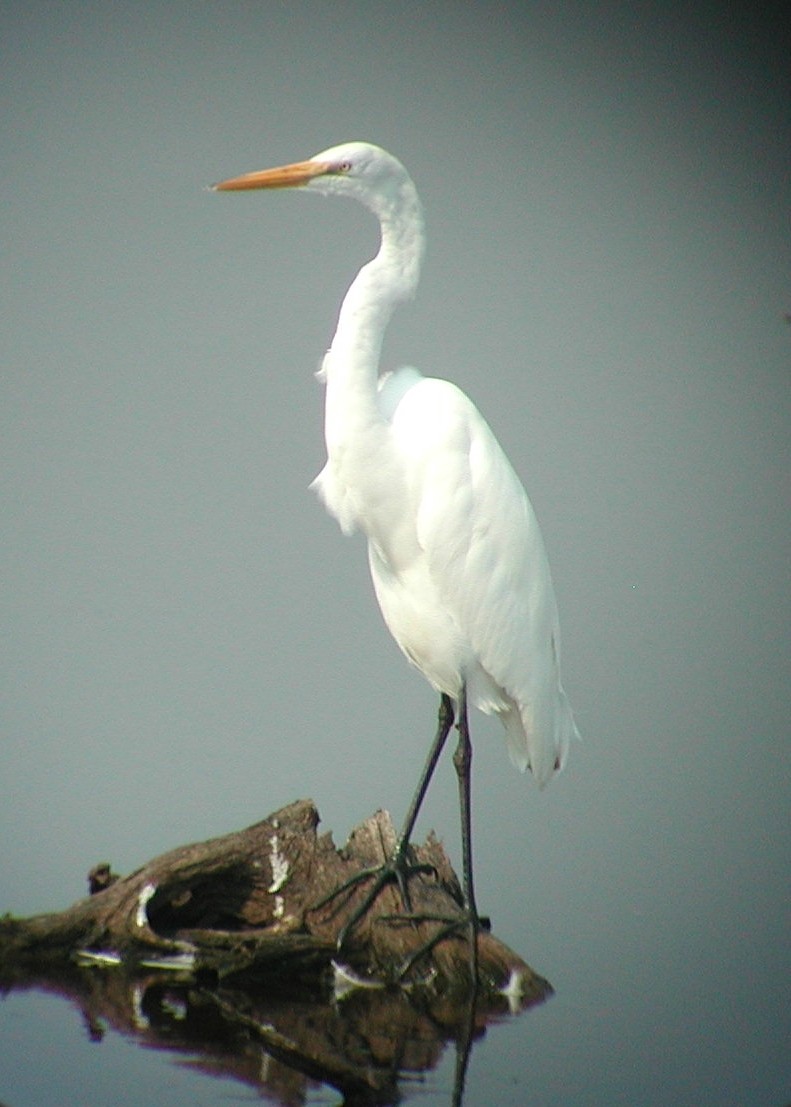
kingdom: Animalia
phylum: Chordata
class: Aves
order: Pelecaniformes
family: Ardeidae
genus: Ardea
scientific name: Ardea alba
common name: Great egret
